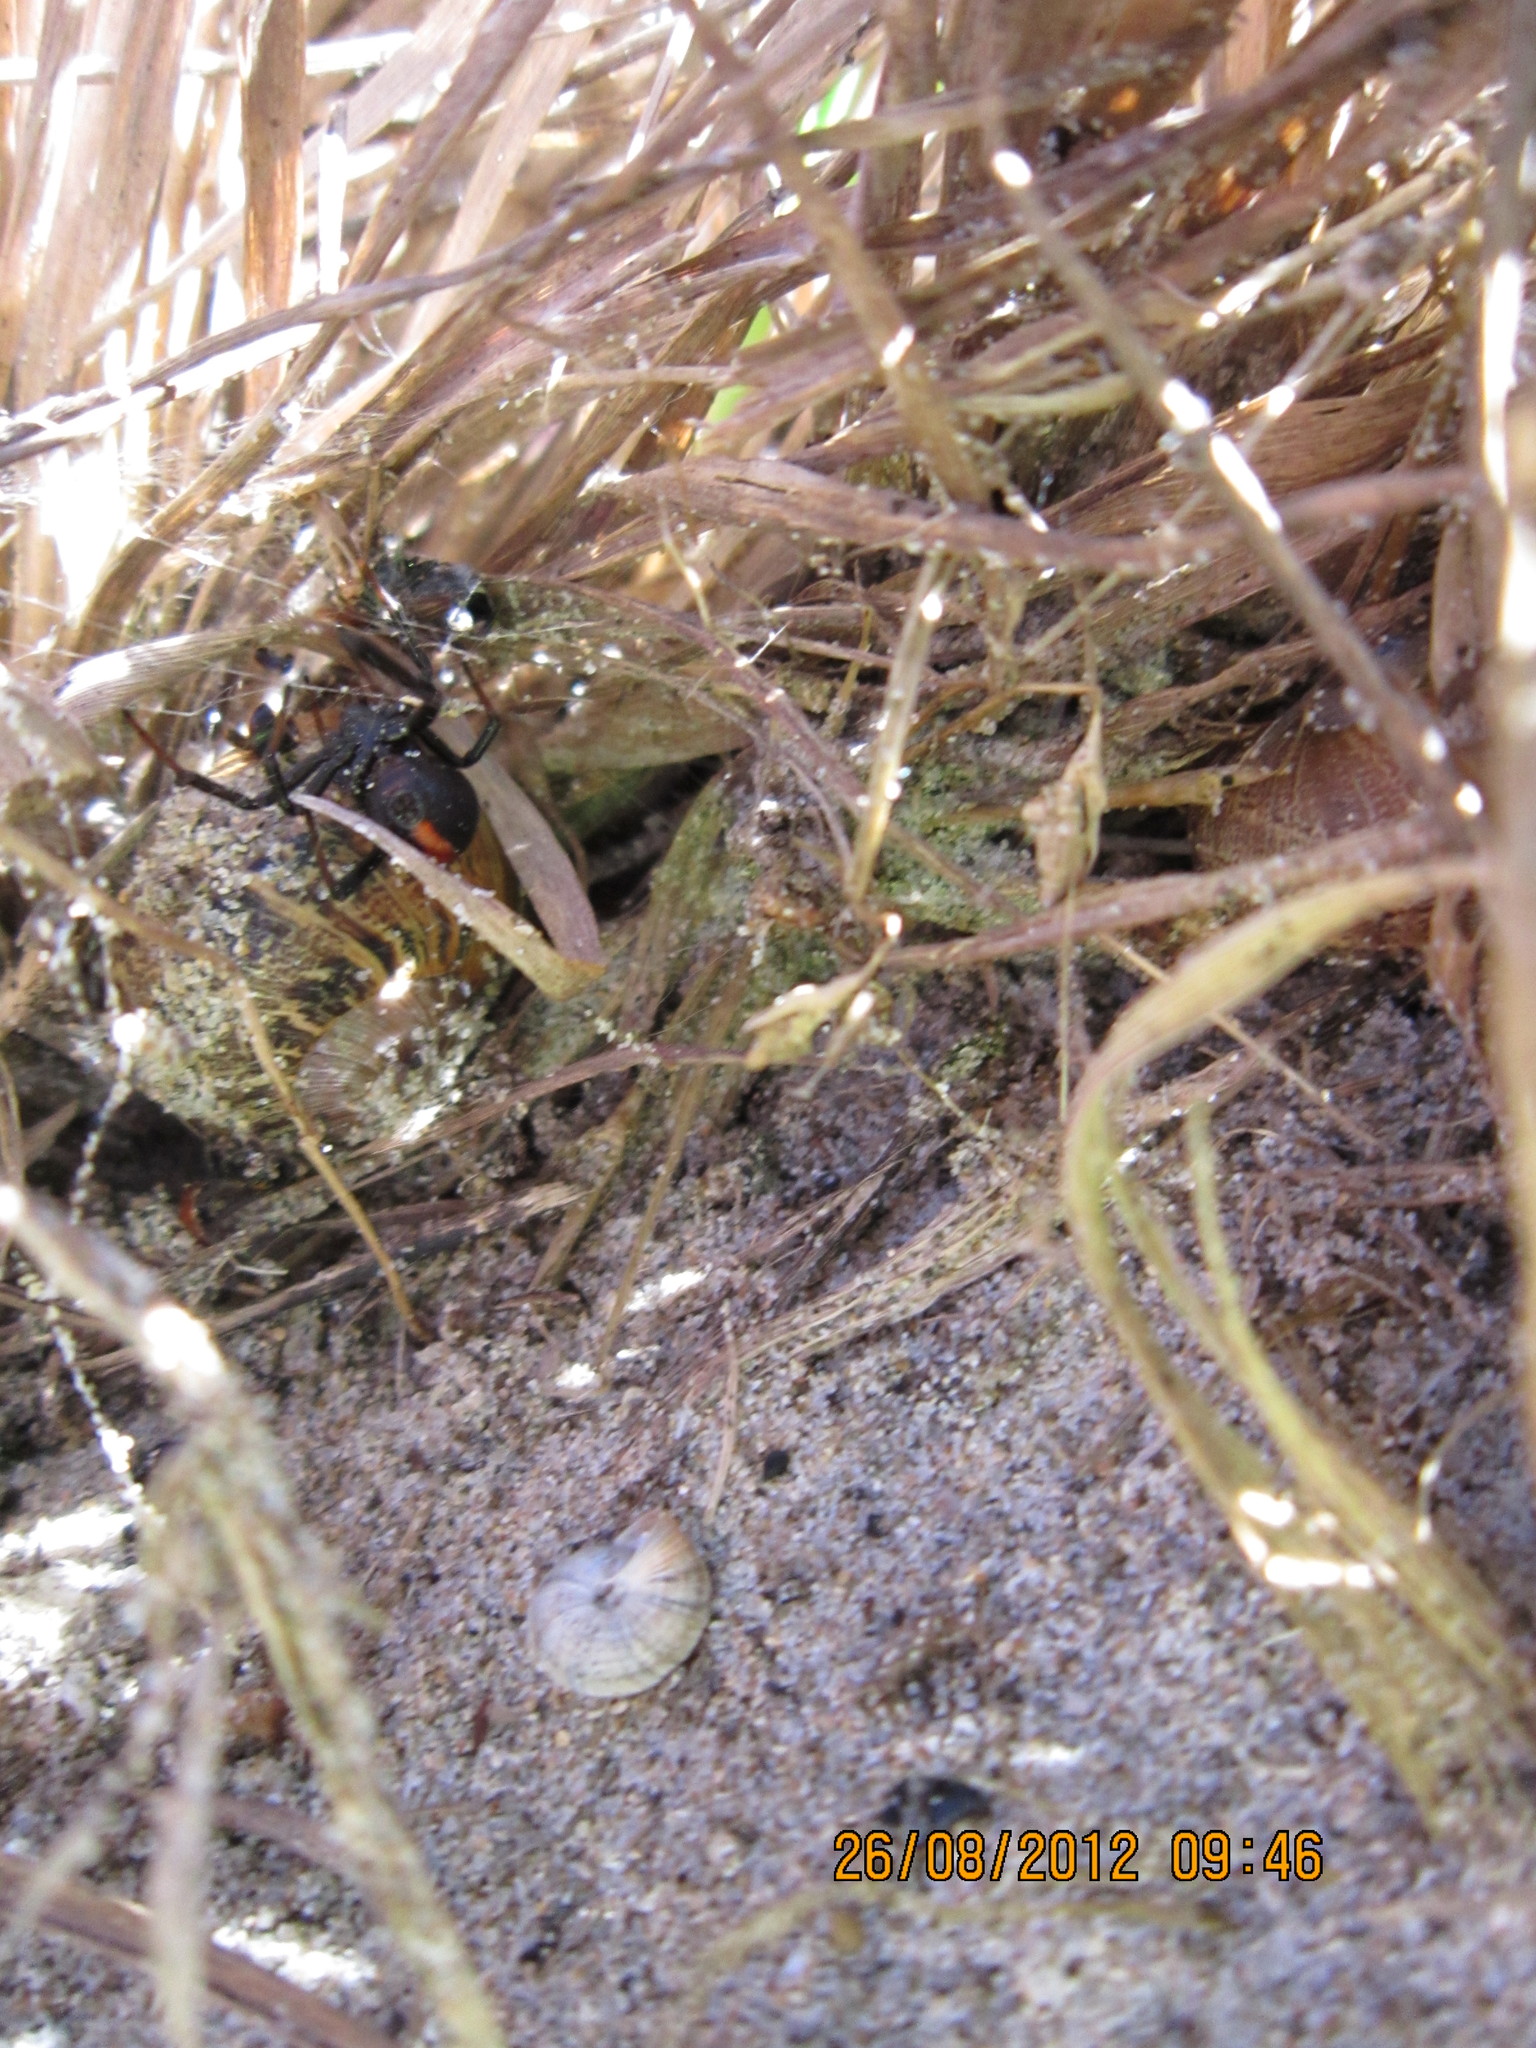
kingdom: Animalia
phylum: Arthropoda
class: Arachnida
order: Araneae
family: Theridiidae
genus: Latrodectus
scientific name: Latrodectus katipo
